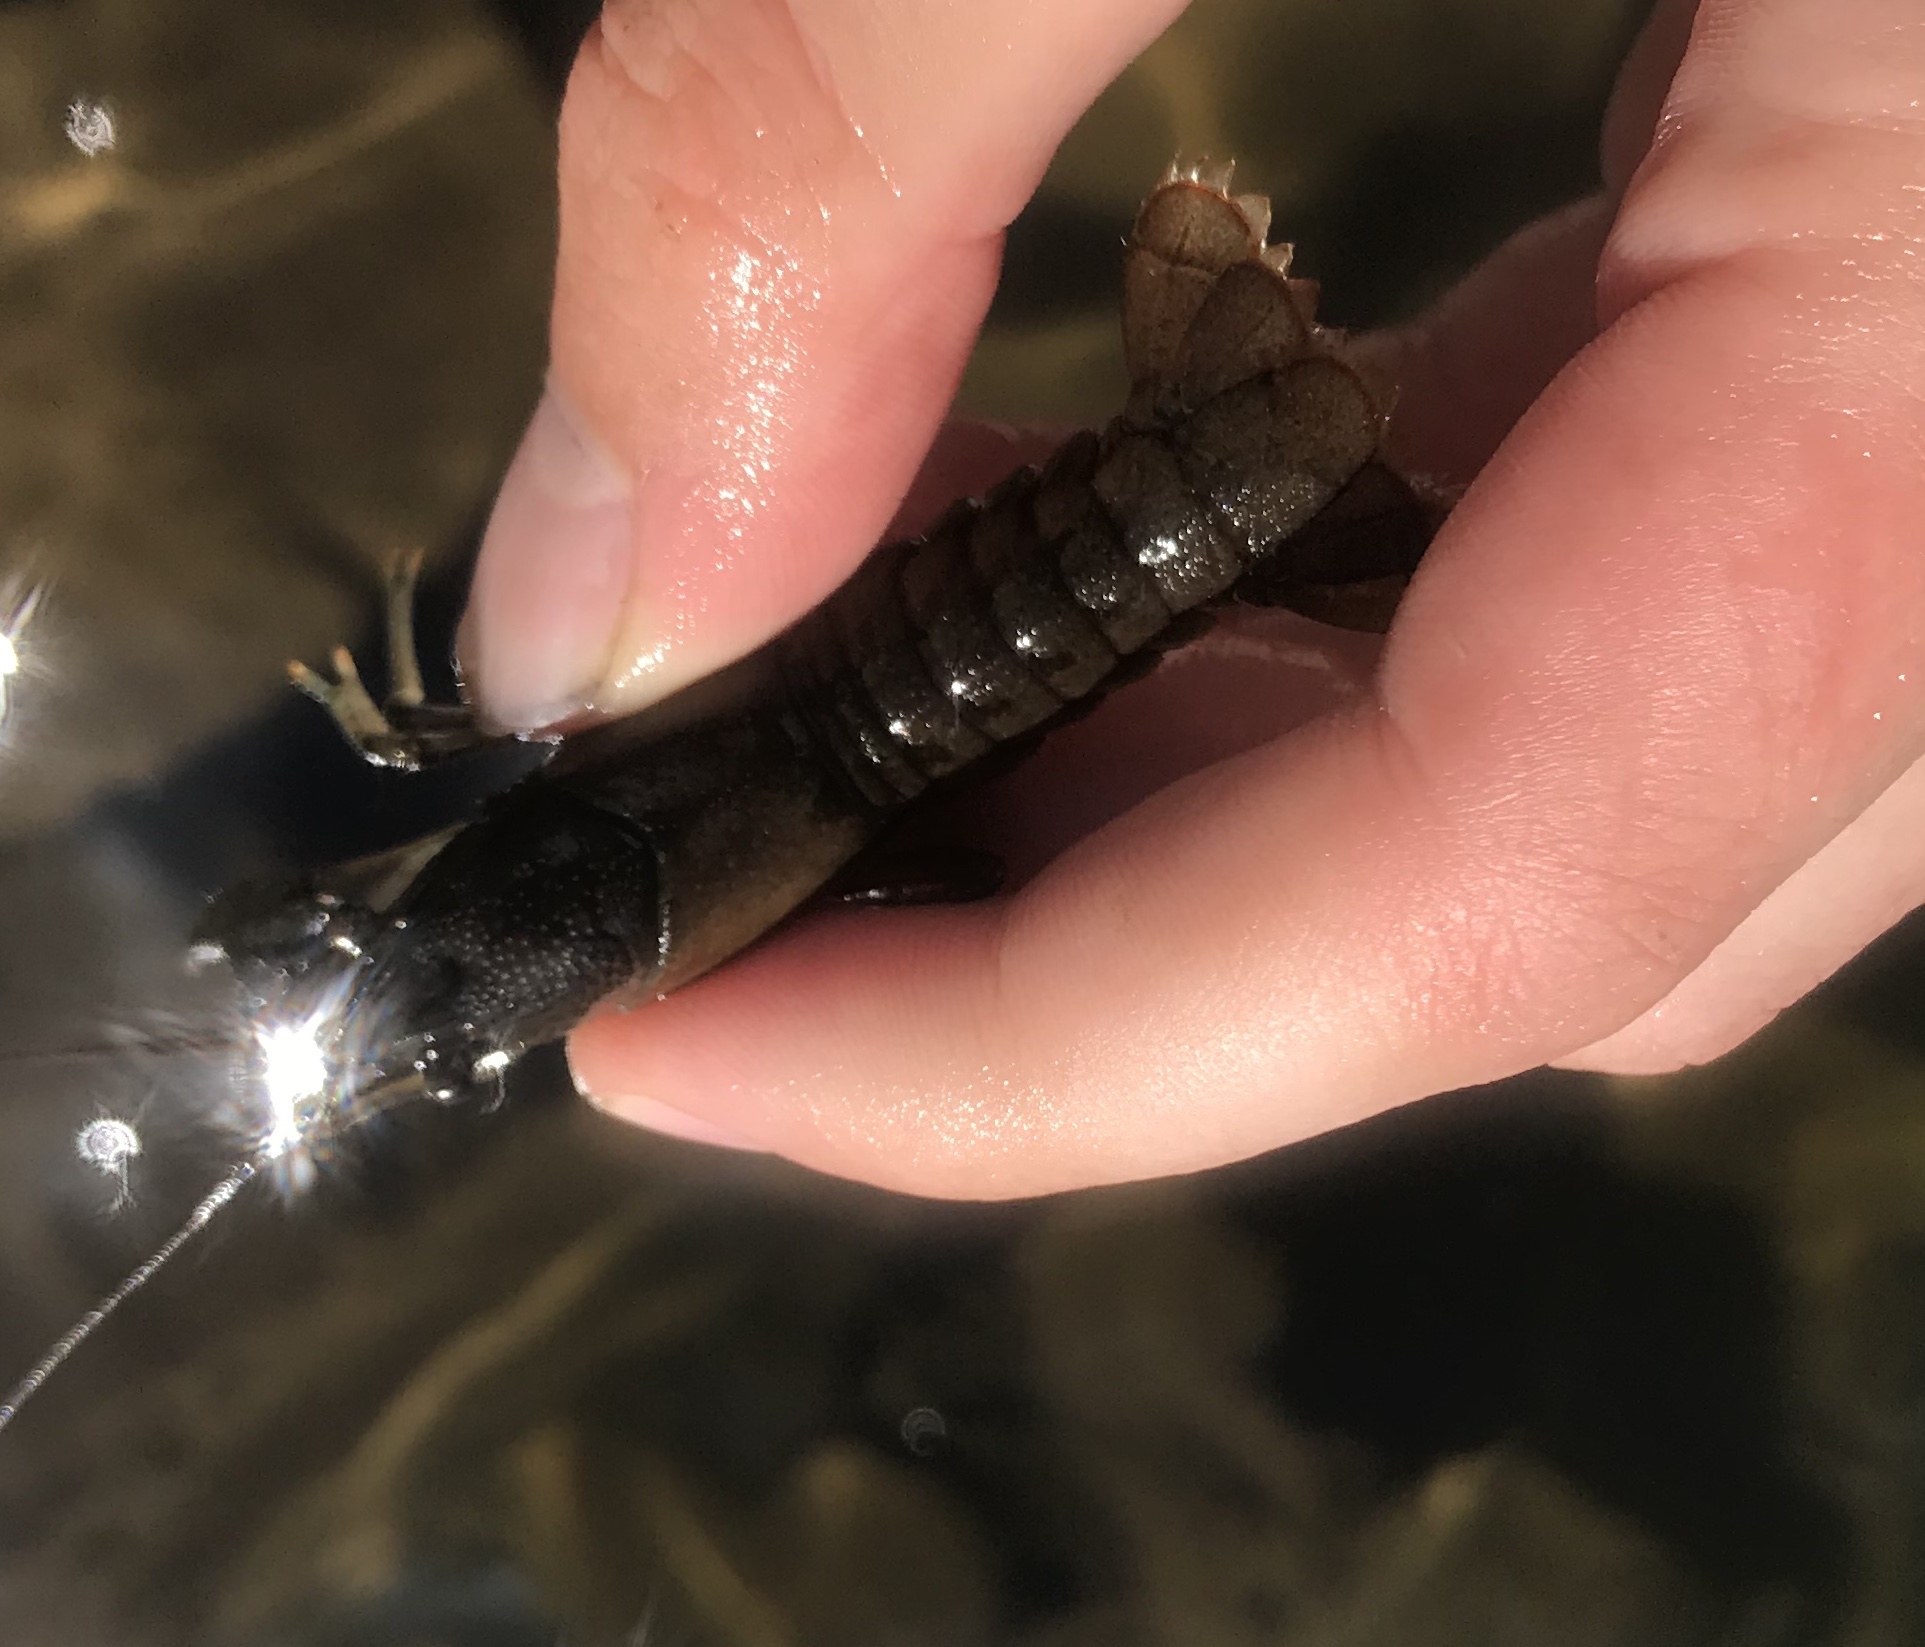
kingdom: Animalia
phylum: Arthropoda
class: Malacostraca
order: Decapoda
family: Cambaridae
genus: Faxonius
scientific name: Faxonius virilis
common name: Virile crayfish
